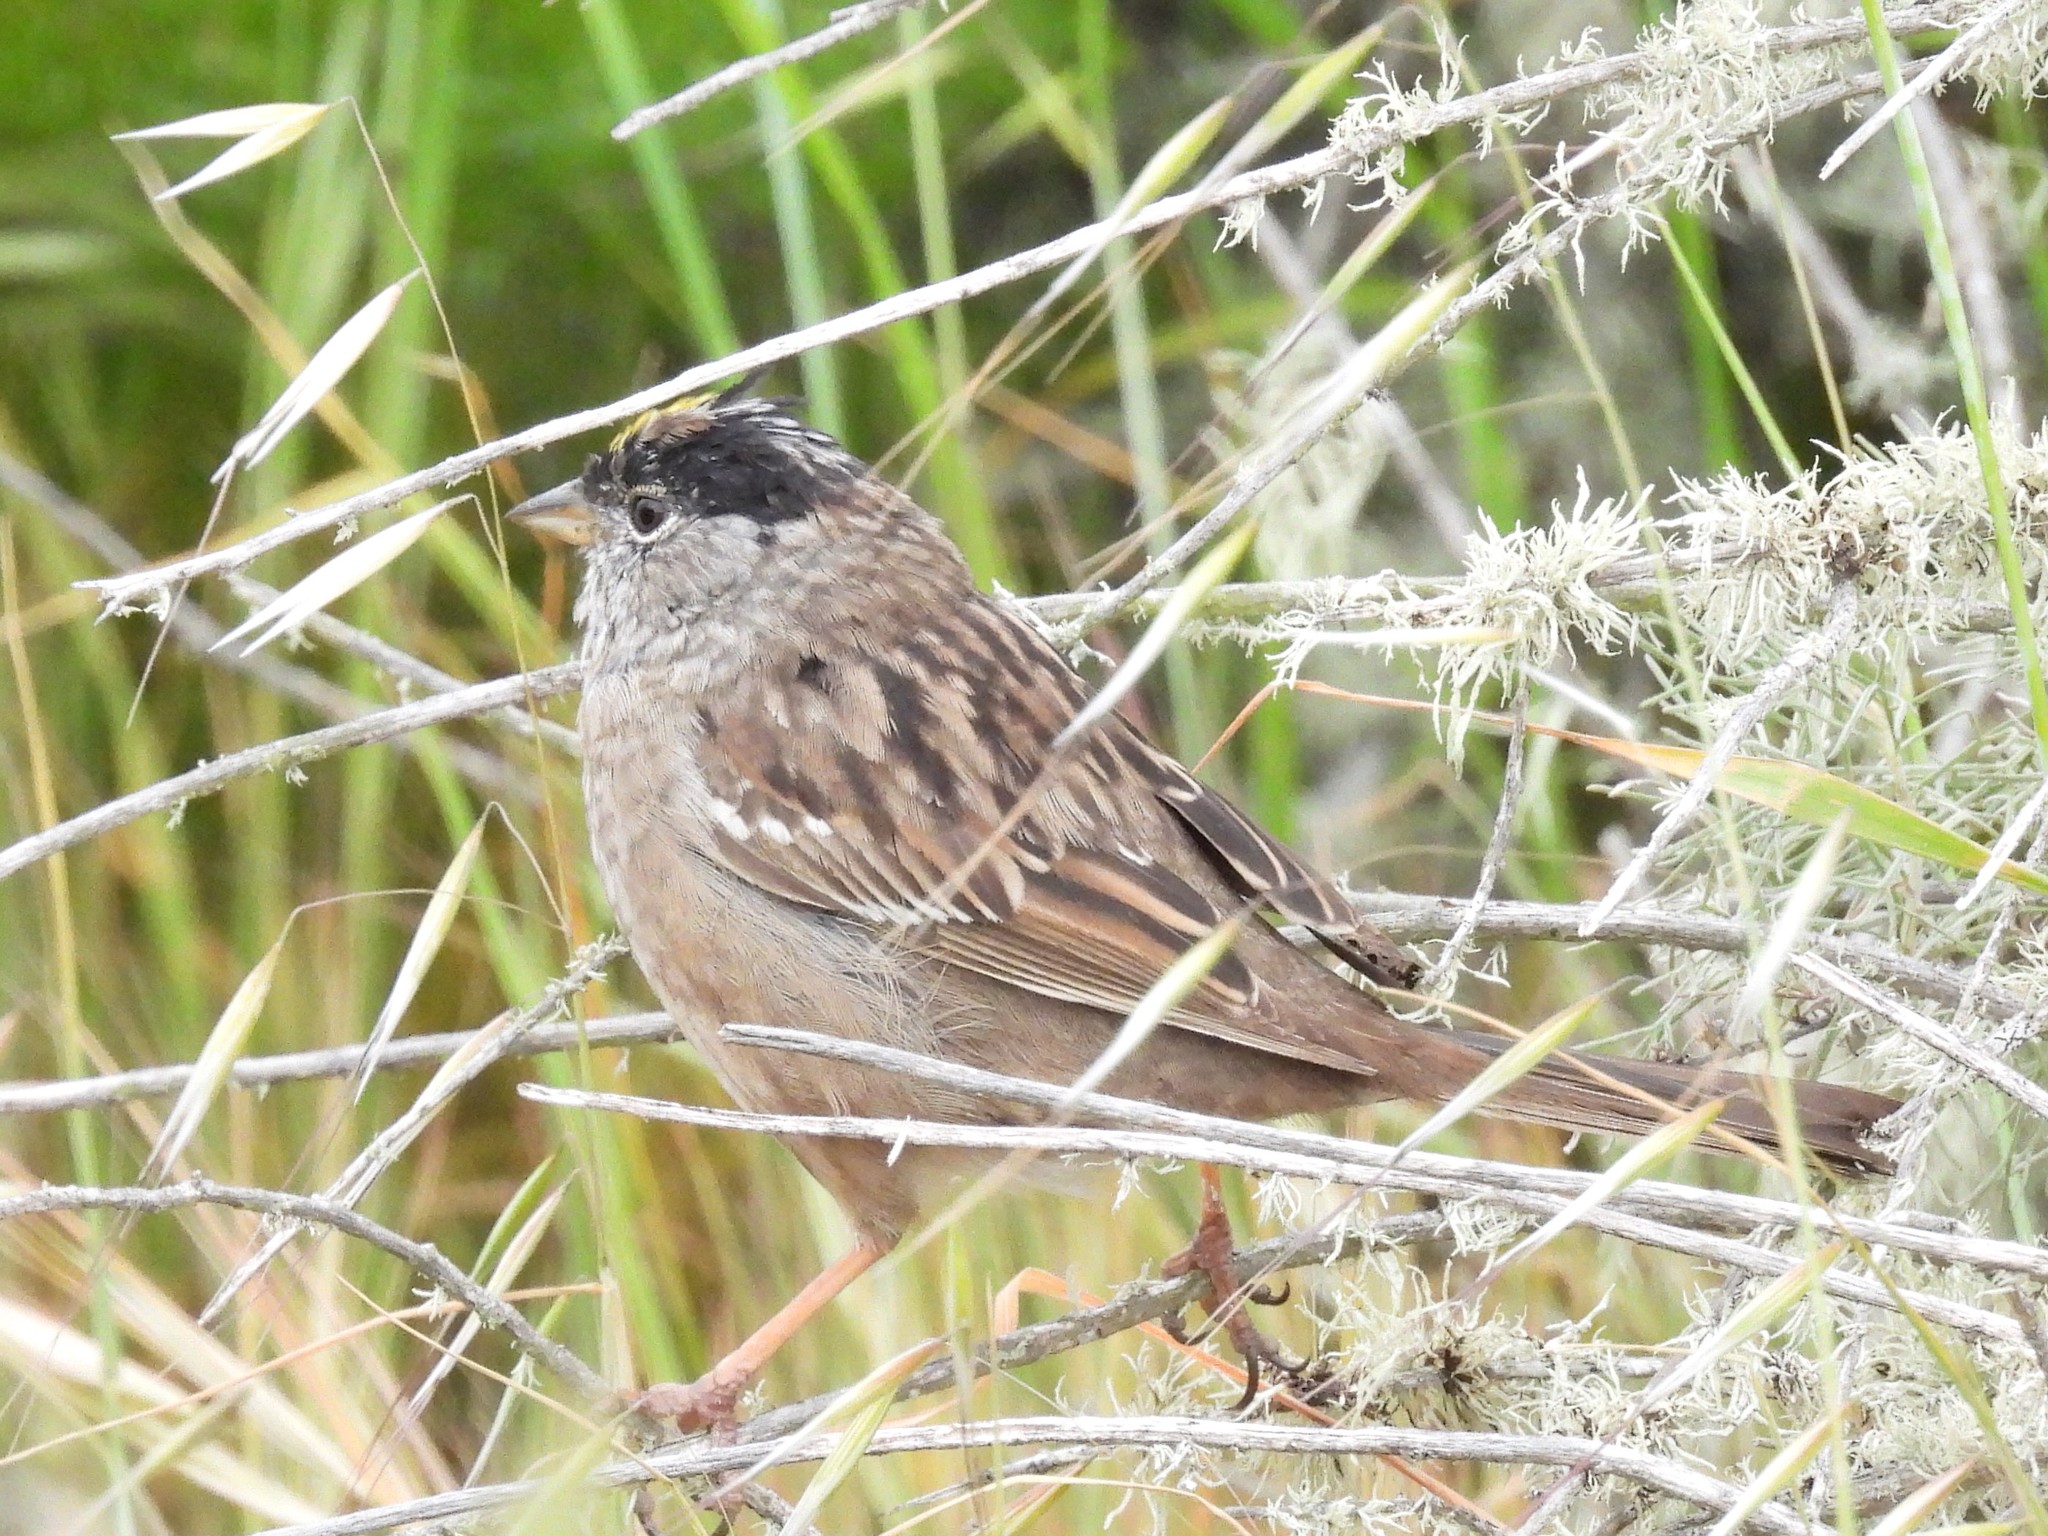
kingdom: Animalia
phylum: Chordata
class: Aves
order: Passeriformes
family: Passerellidae
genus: Zonotrichia
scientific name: Zonotrichia atricapilla
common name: Golden-crowned sparrow
